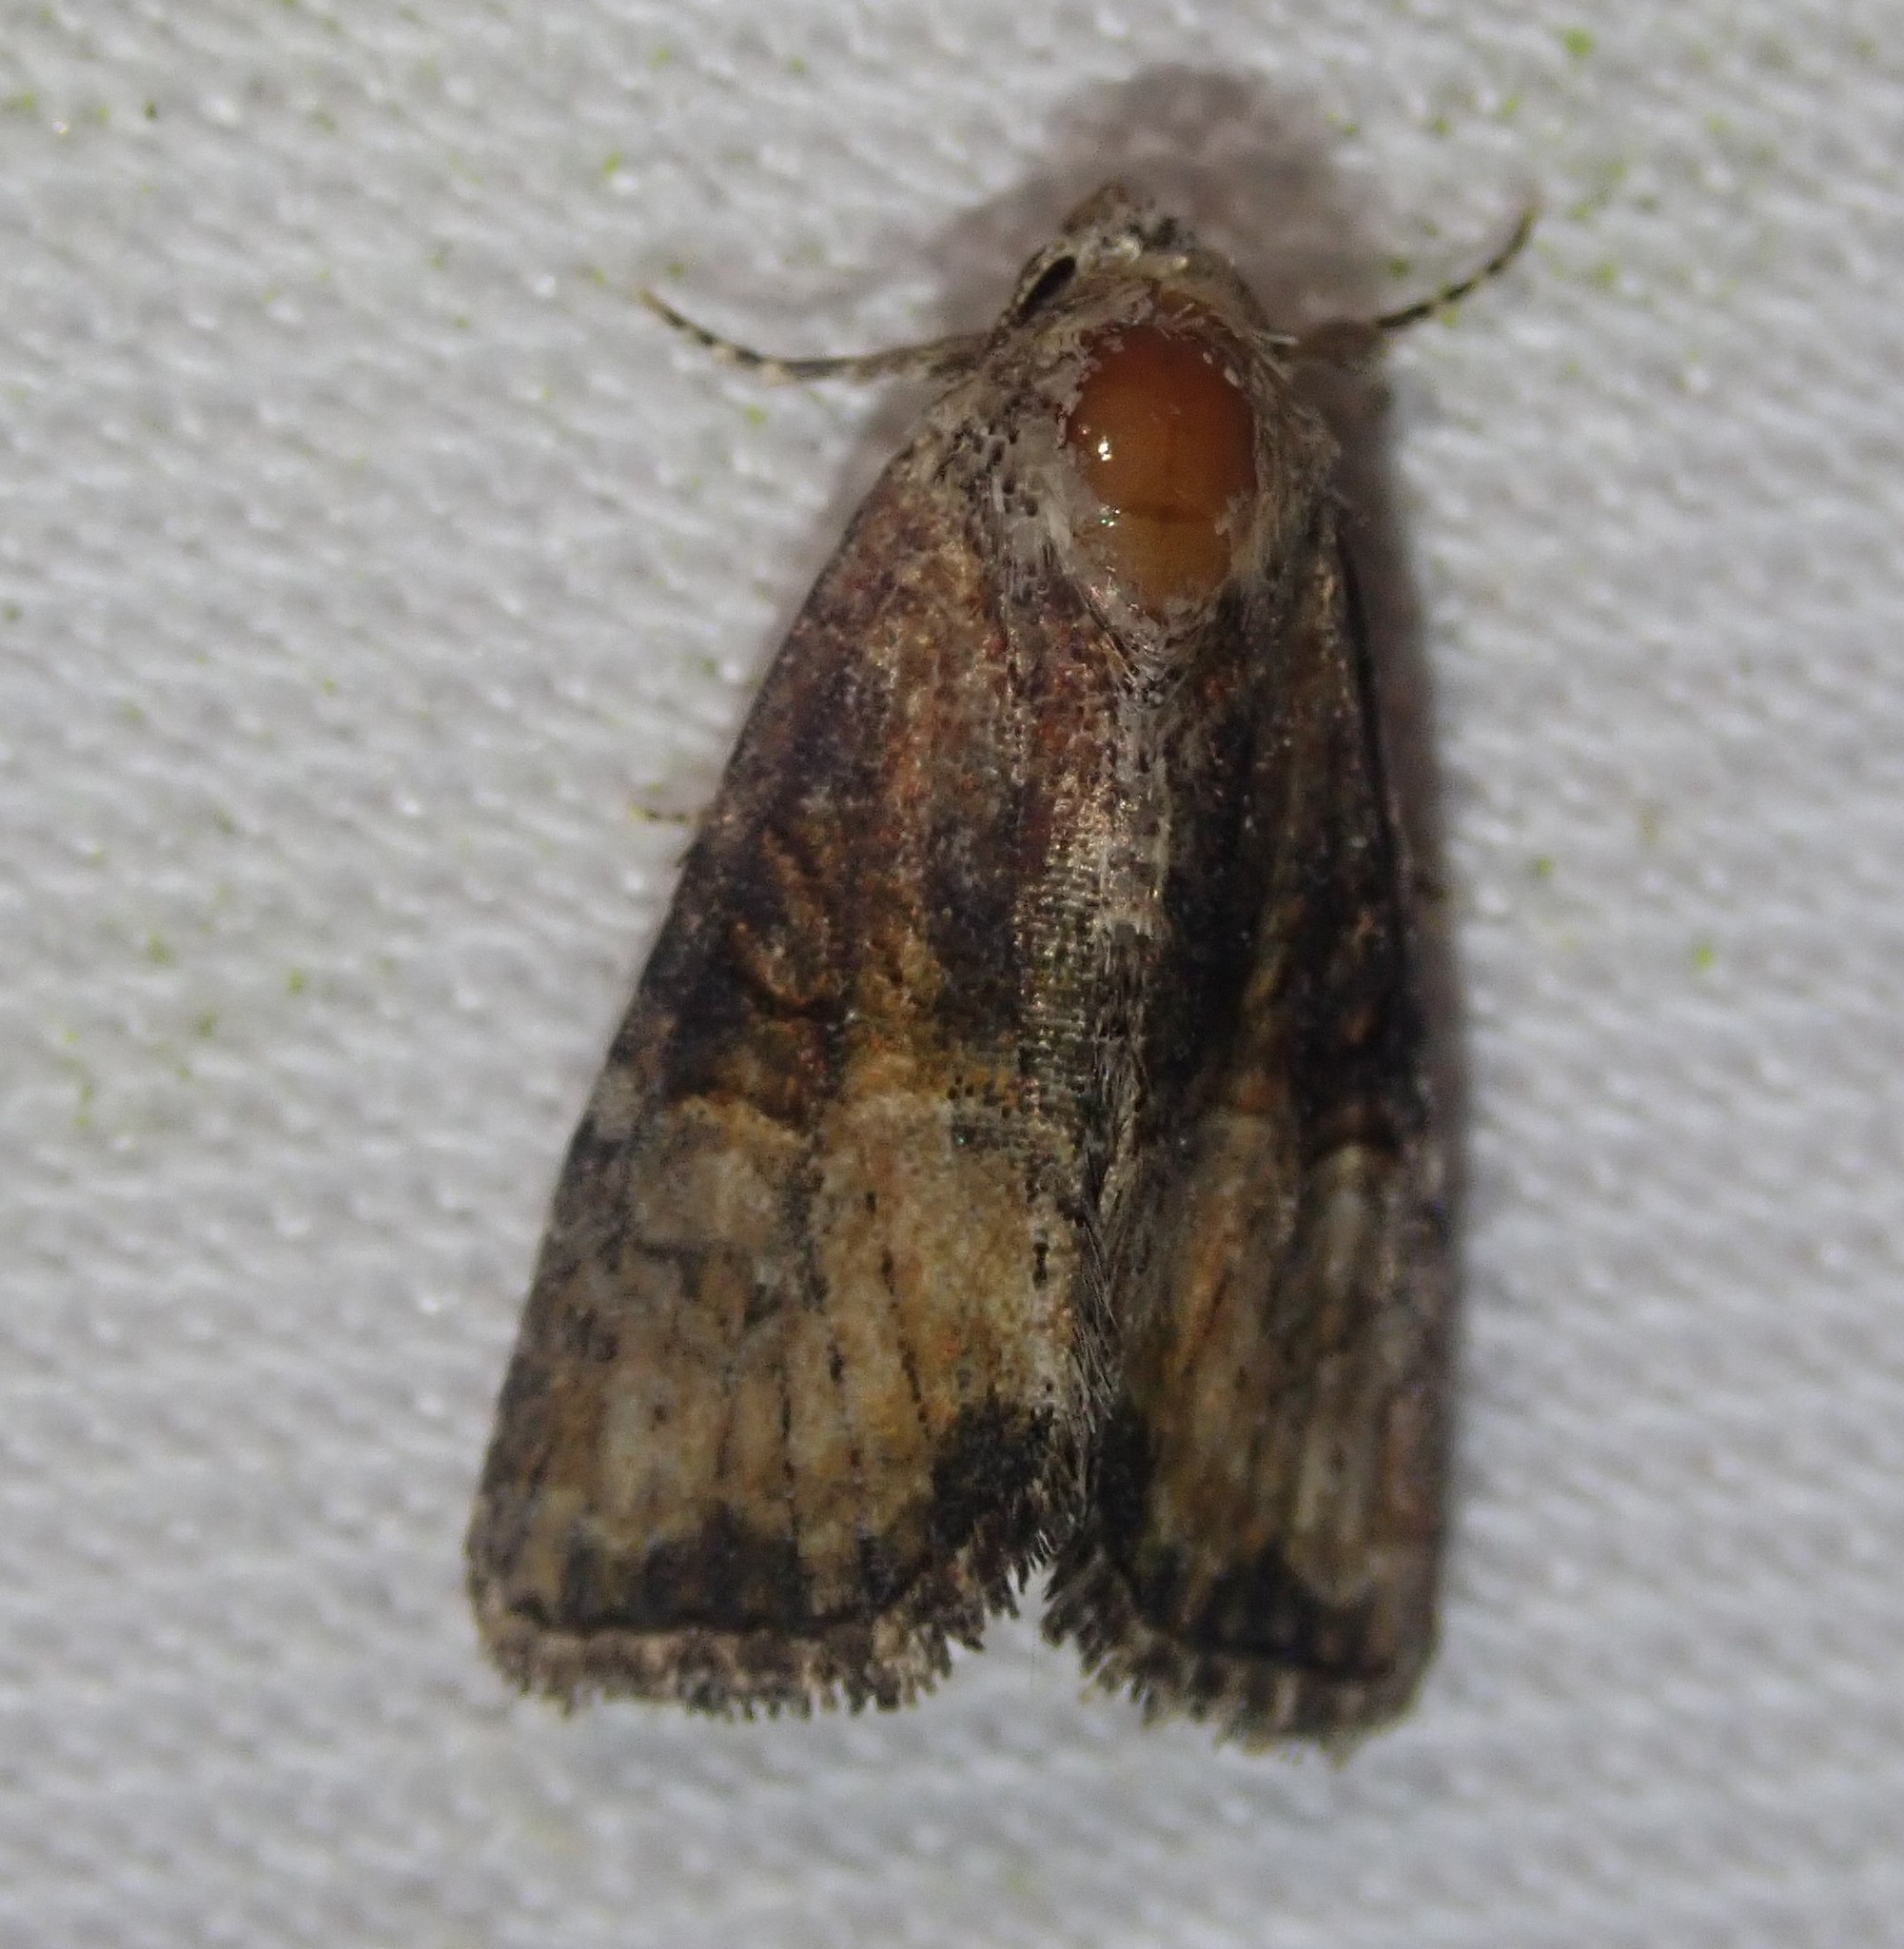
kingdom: Animalia
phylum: Arthropoda
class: Insecta
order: Lepidoptera
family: Noctuidae
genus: Mesoligia
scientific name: Mesoligia furuncula
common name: Cloaked minor
